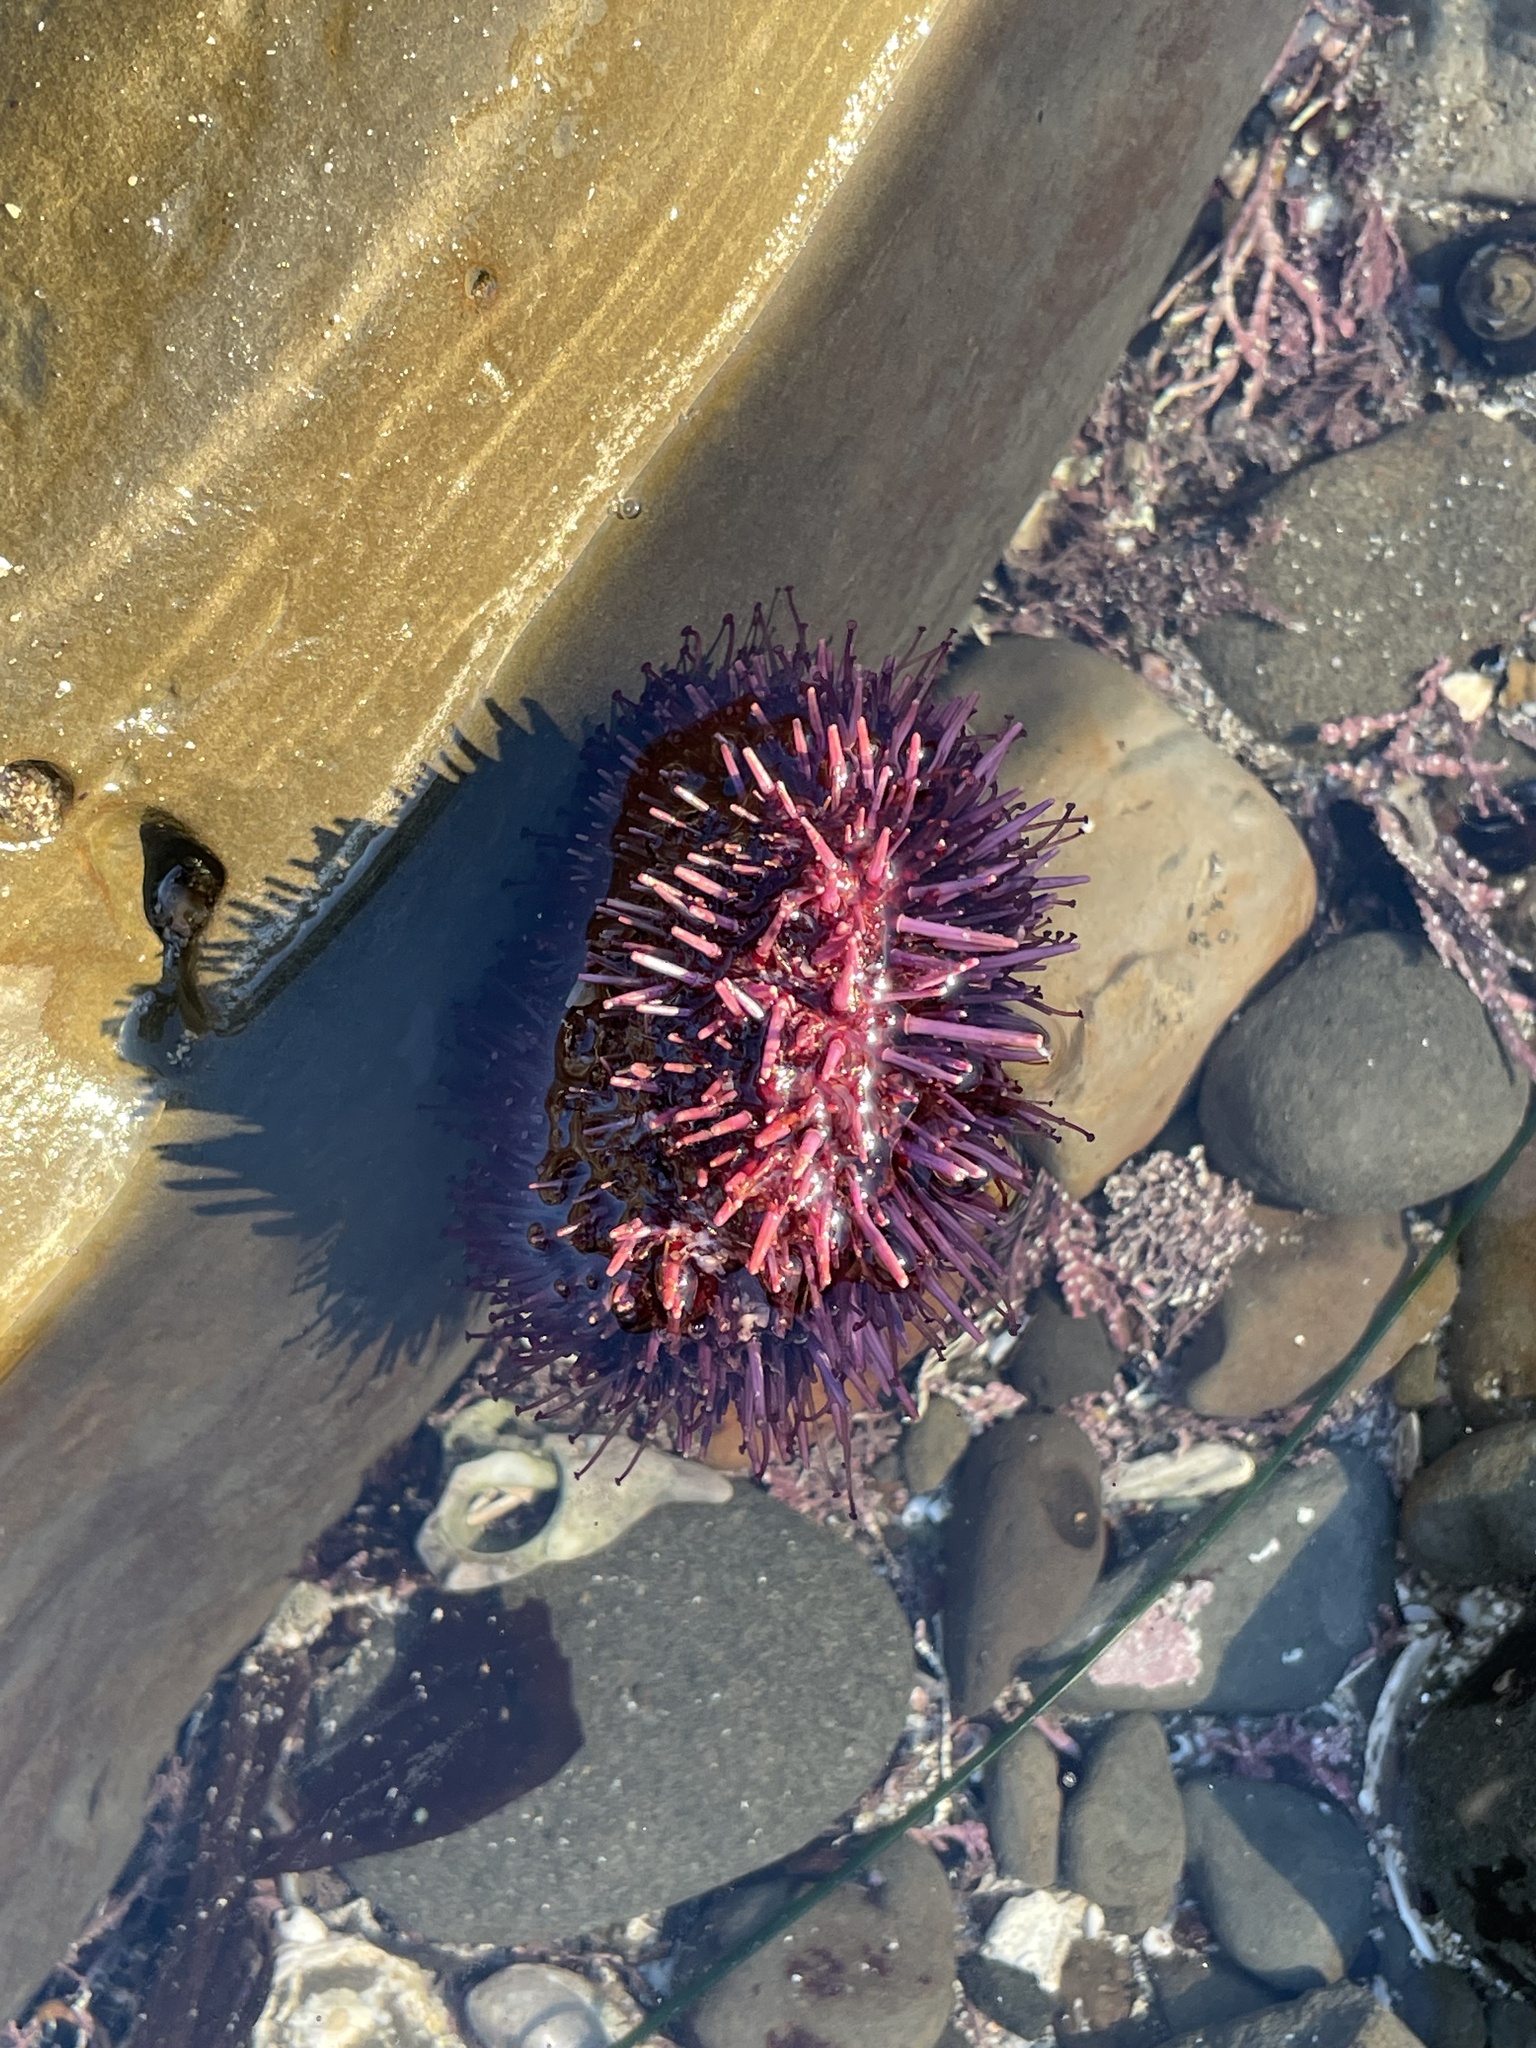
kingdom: Animalia
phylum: Echinodermata
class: Echinoidea
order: Camarodonta
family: Strongylocentrotidae
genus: Strongylocentrotus
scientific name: Strongylocentrotus purpuratus
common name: Purple sea urchin
